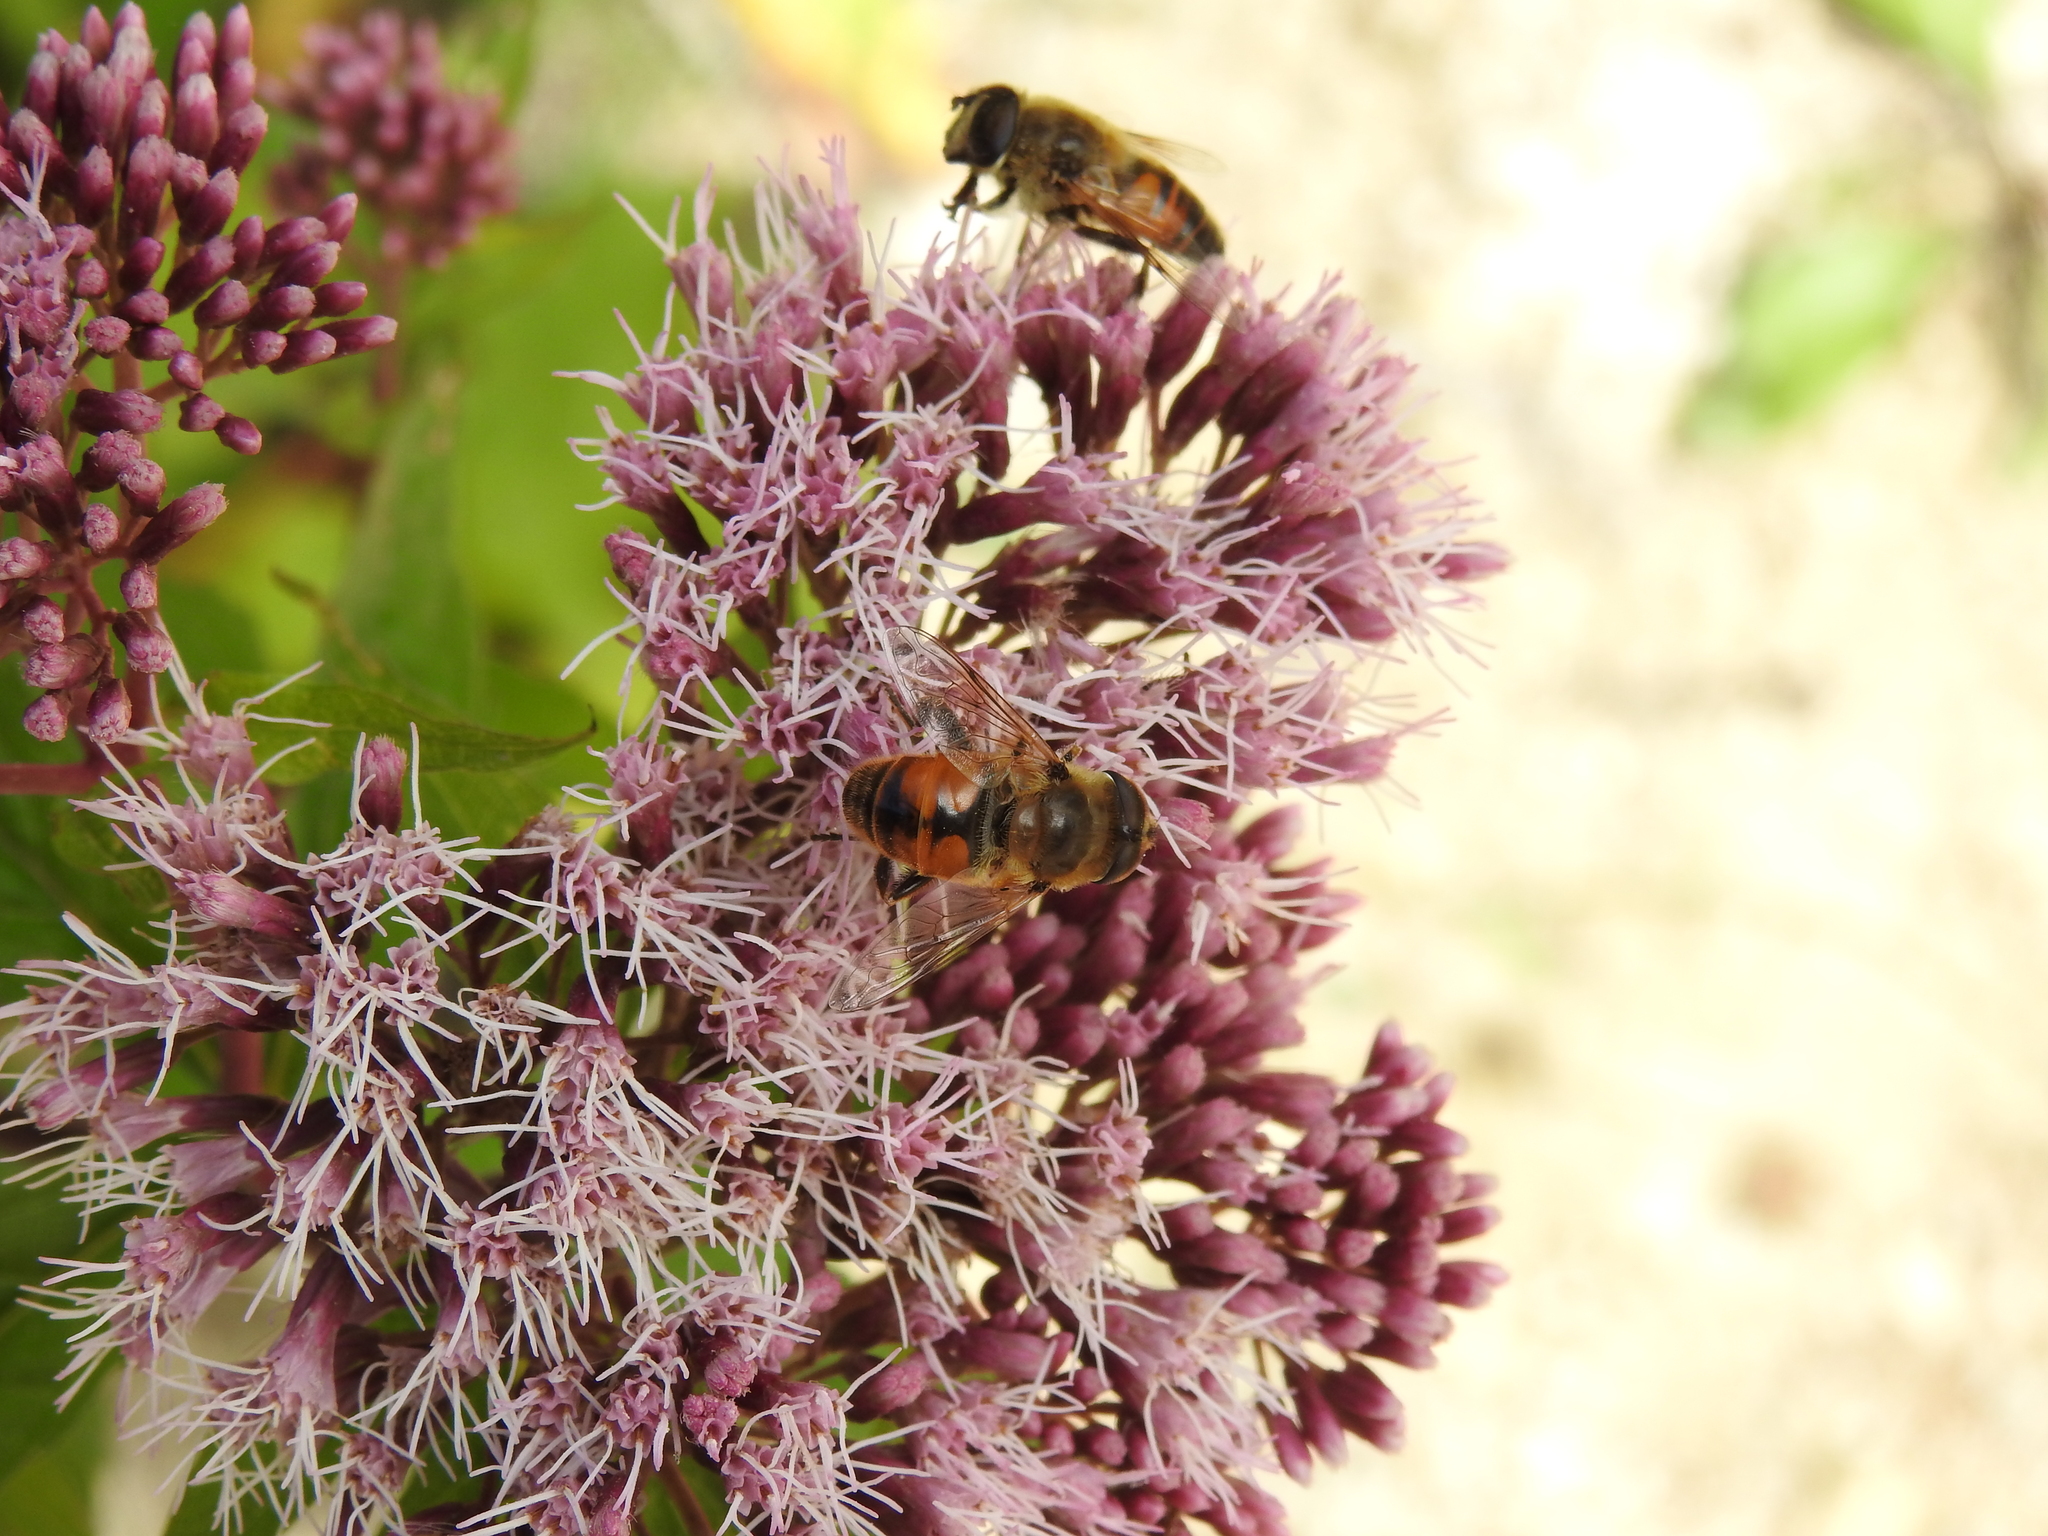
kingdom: Animalia
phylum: Arthropoda
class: Insecta
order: Diptera
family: Syrphidae
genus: Eristalis
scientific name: Eristalis tenax
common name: Drone fly
